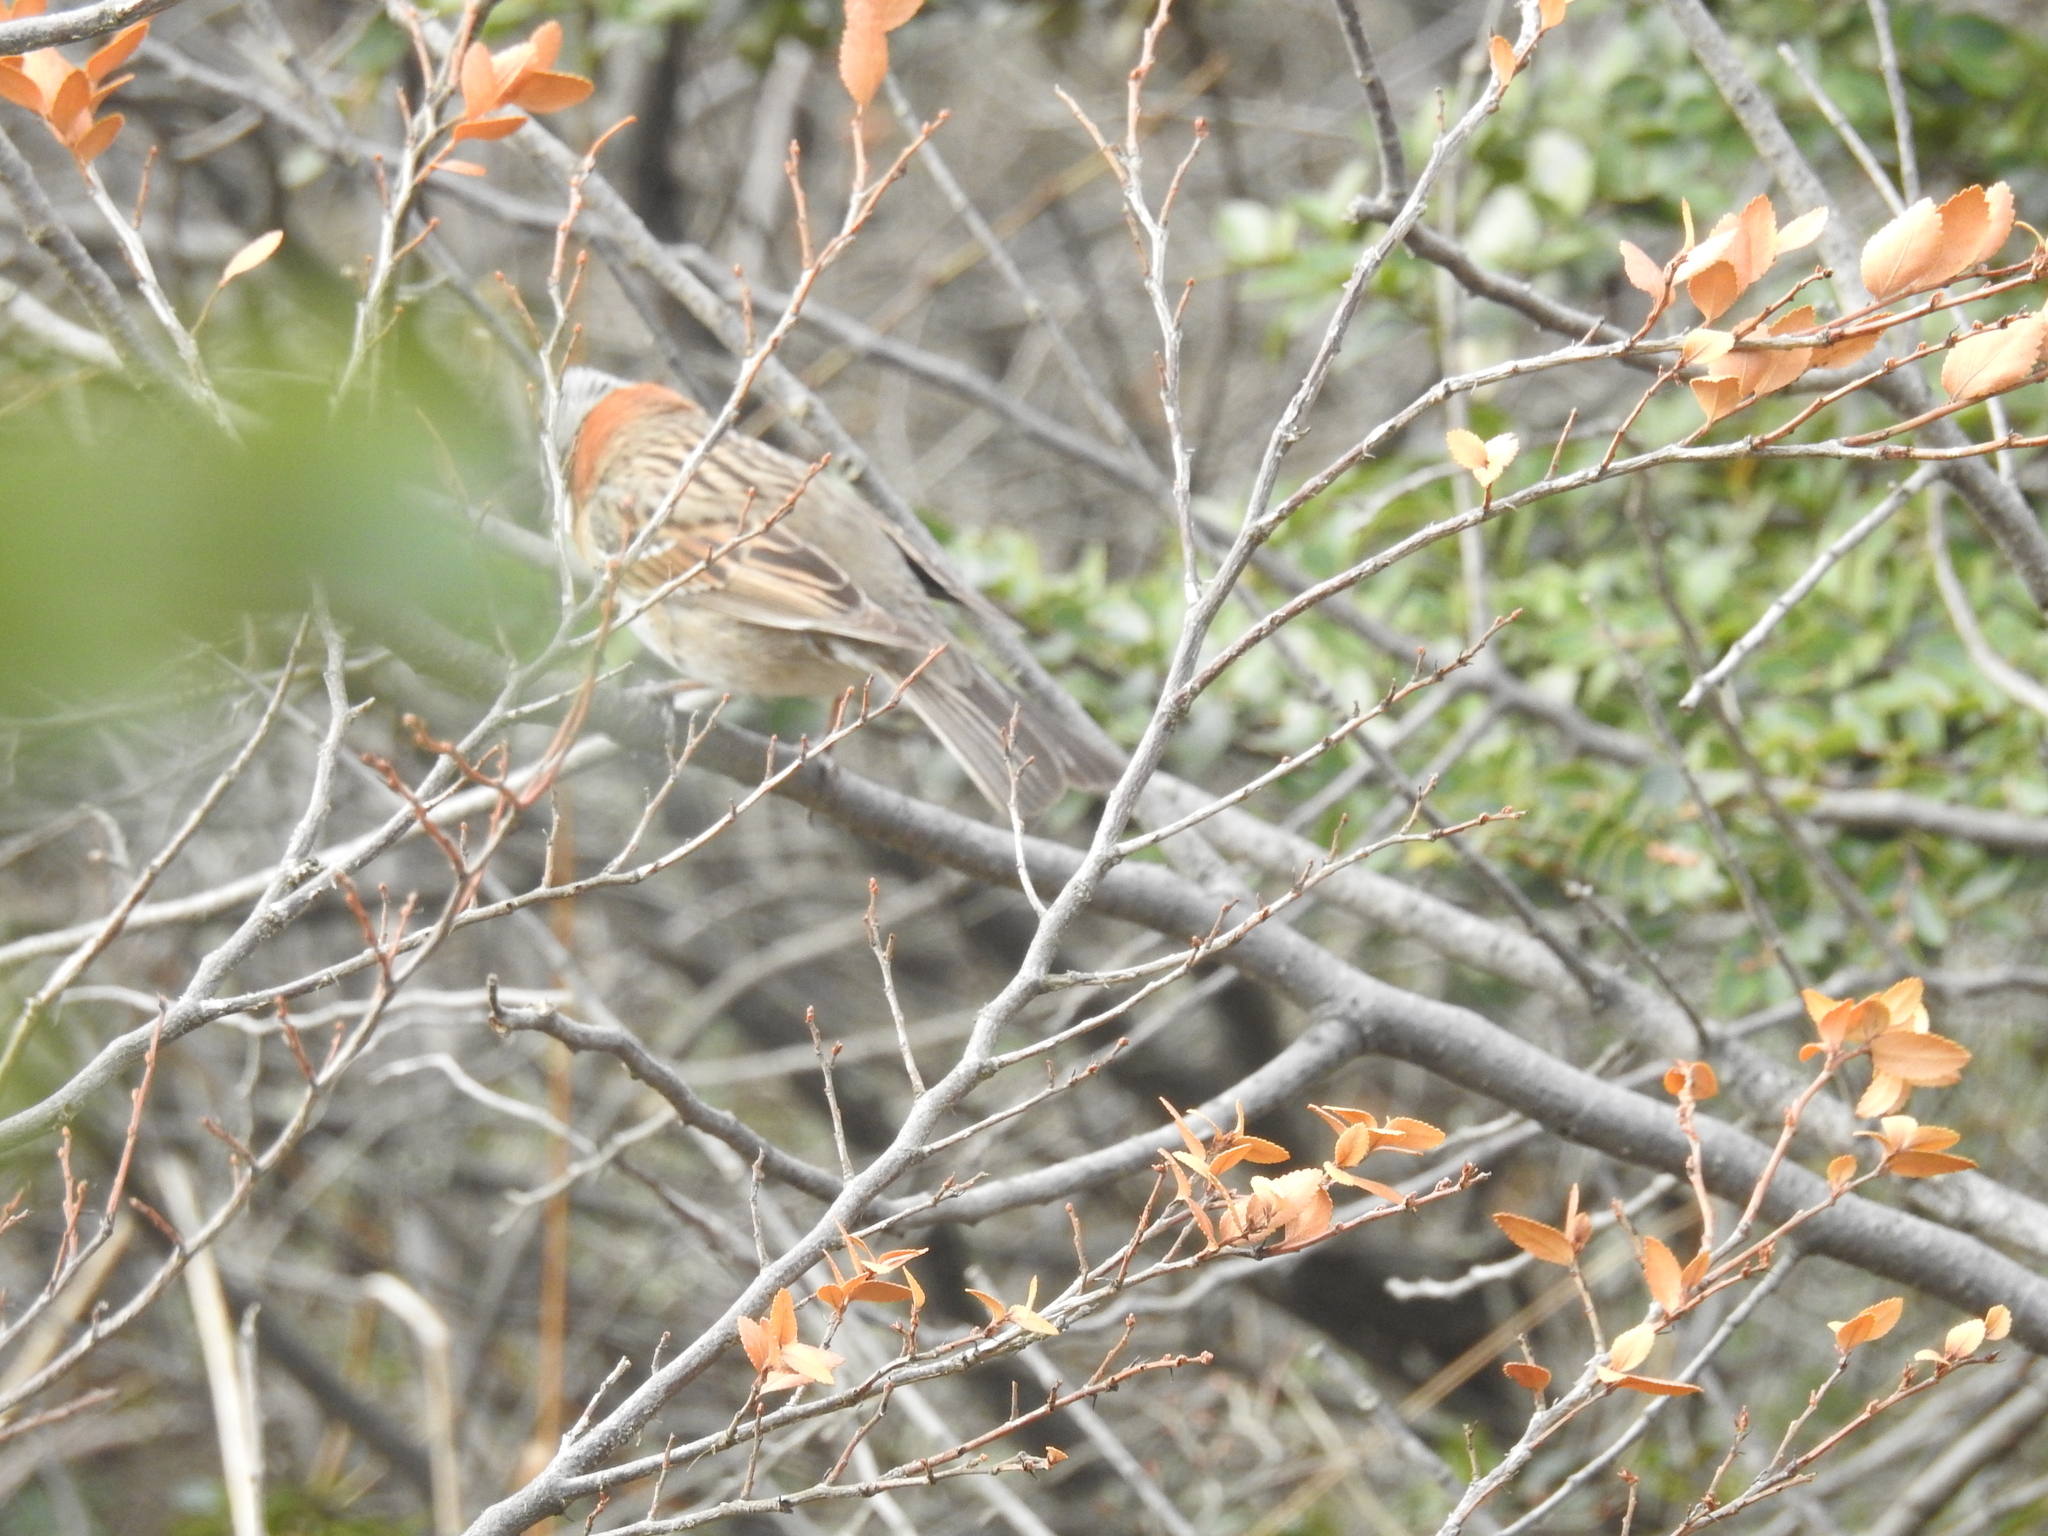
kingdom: Animalia
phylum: Chordata
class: Aves
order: Passeriformes
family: Passerellidae
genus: Zonotrichia
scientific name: Zonotrichia capensis
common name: Rufous-collared sparrow
